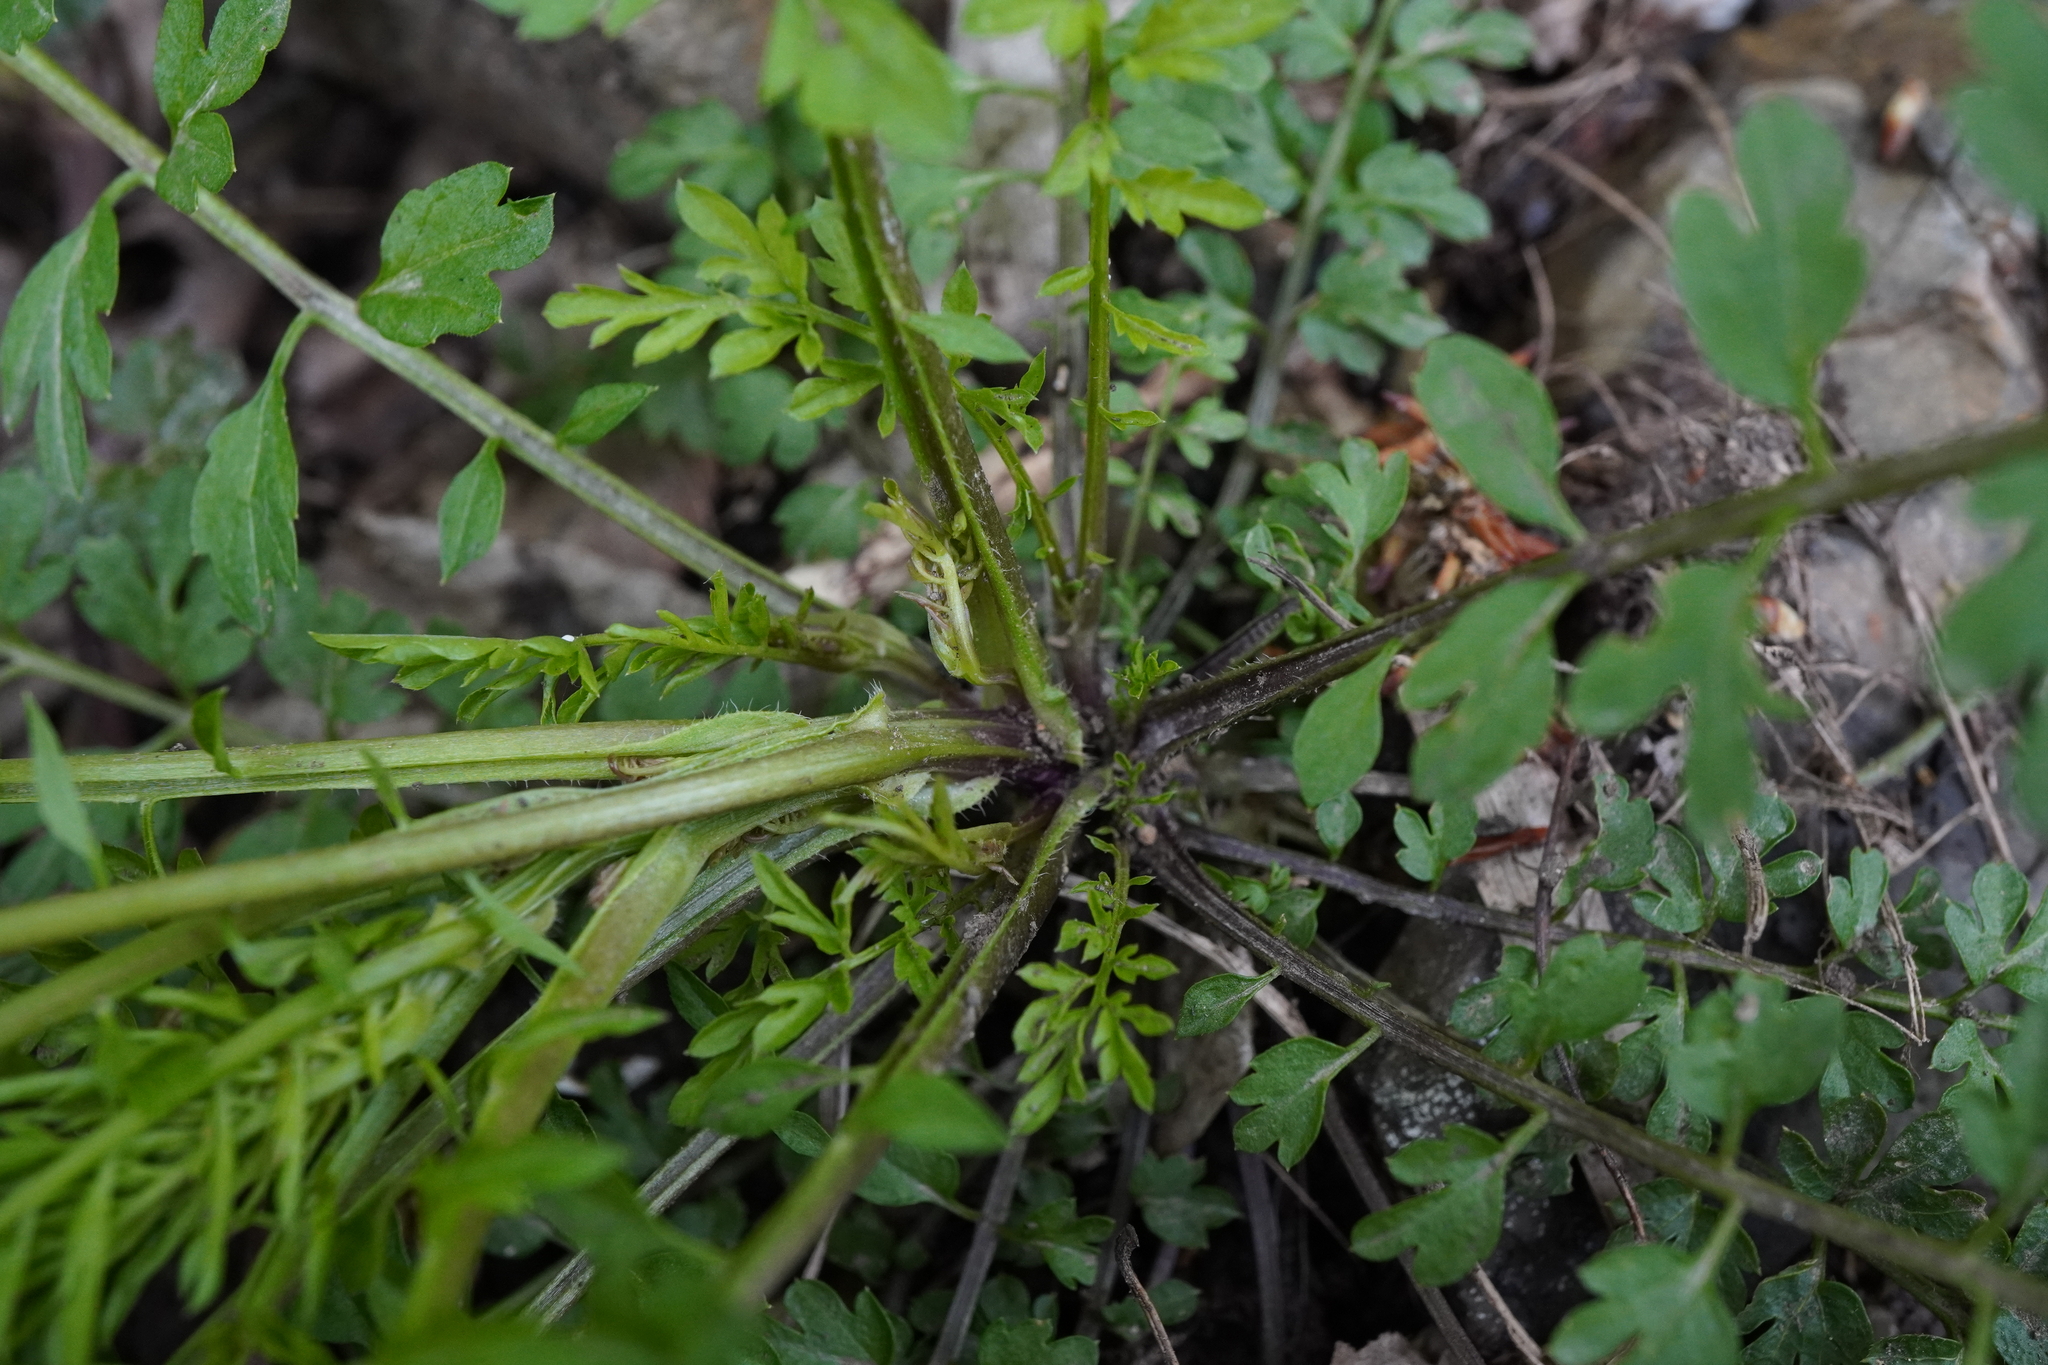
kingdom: Plantae
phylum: Tracheophyta
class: Magnoliopsida
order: Brassicales
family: Brassicaceae
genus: Cardamine
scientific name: Cardamine impatiens
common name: Narrow-leaved bitter-cress
